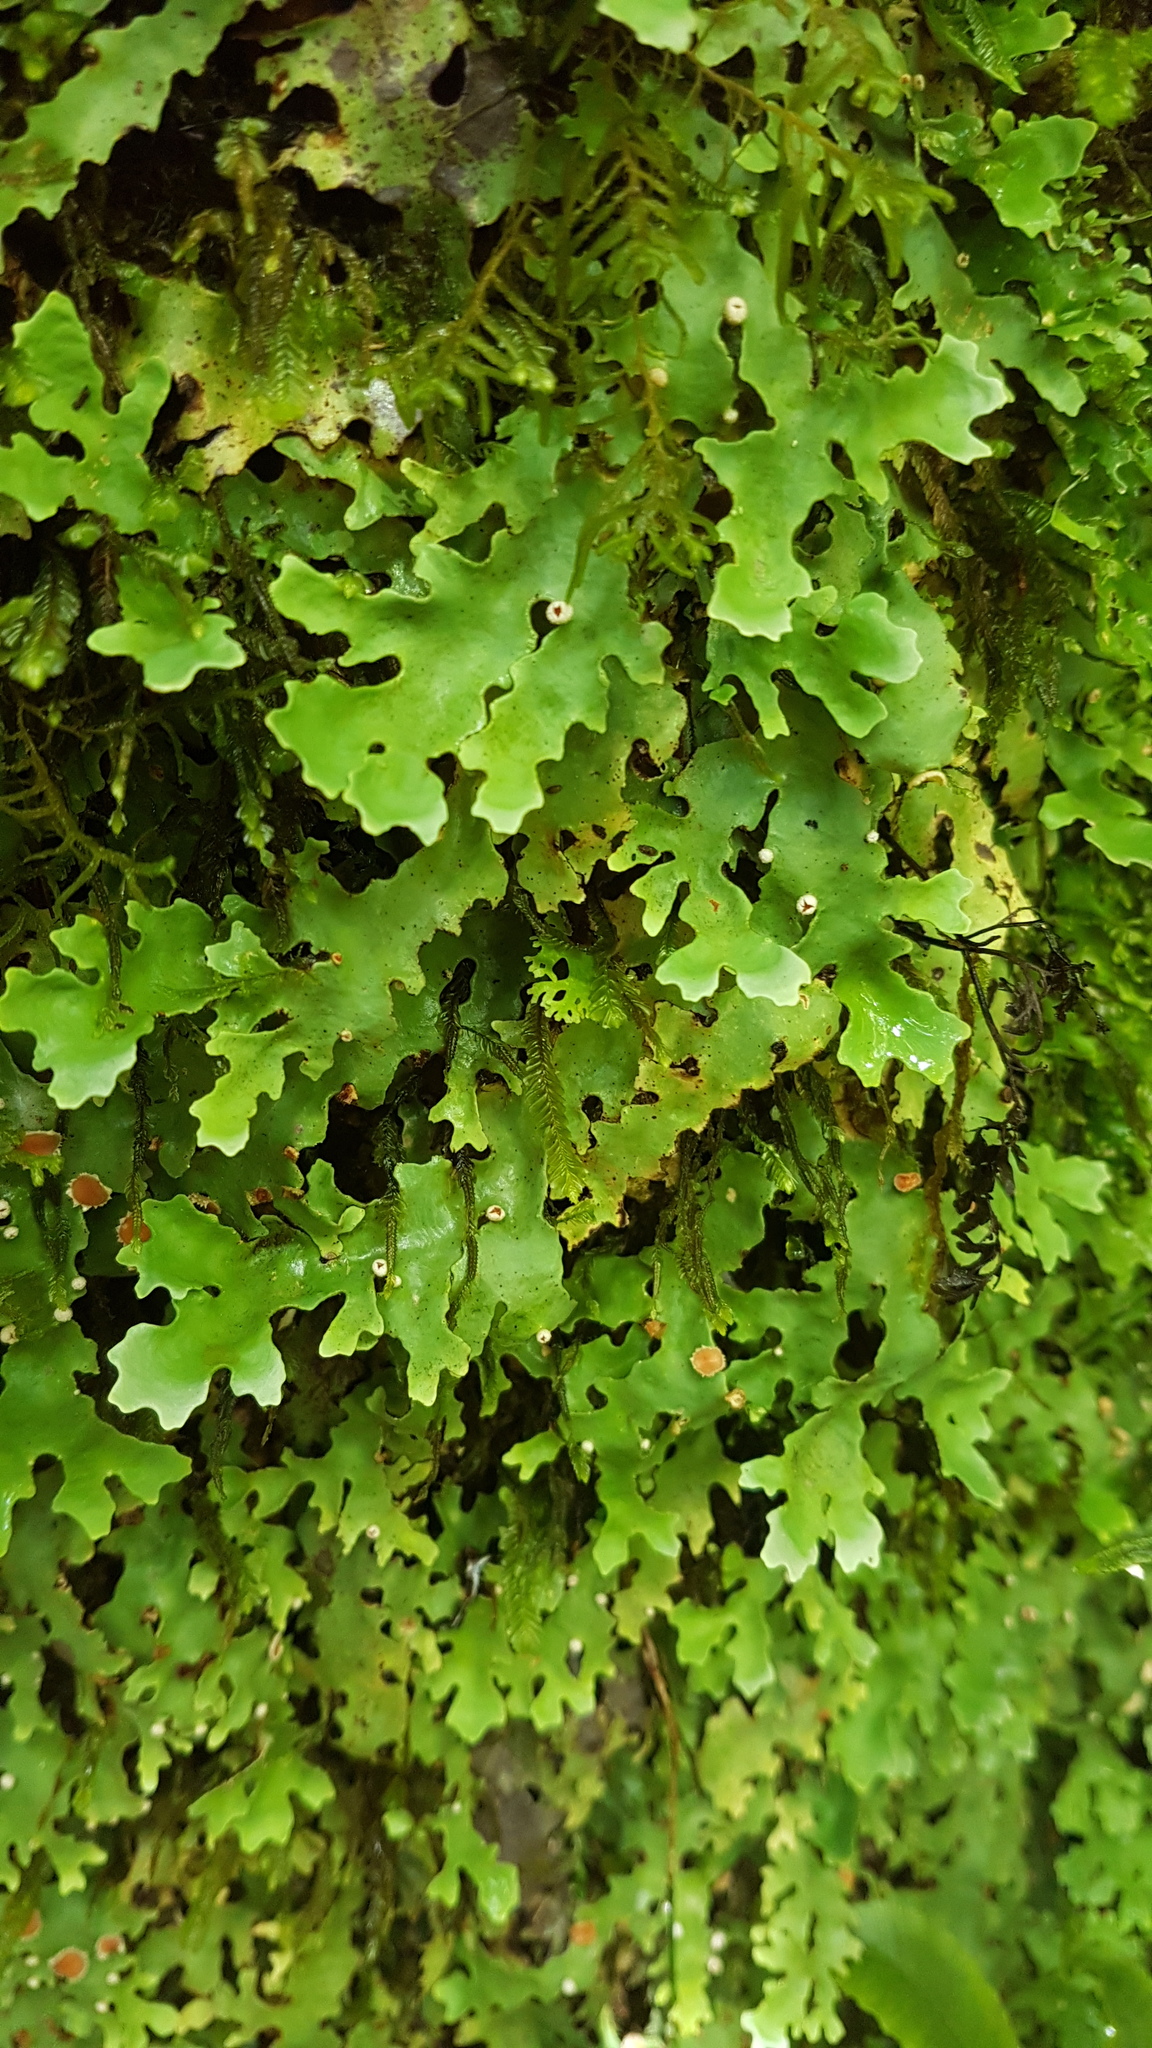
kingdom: Fungi
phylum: Ascomycota
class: Lecanoromycetes
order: Peltigerales
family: Lobariaceae
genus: Pseudocyphellaria
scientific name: Pseudocyphellaria homeophylla
